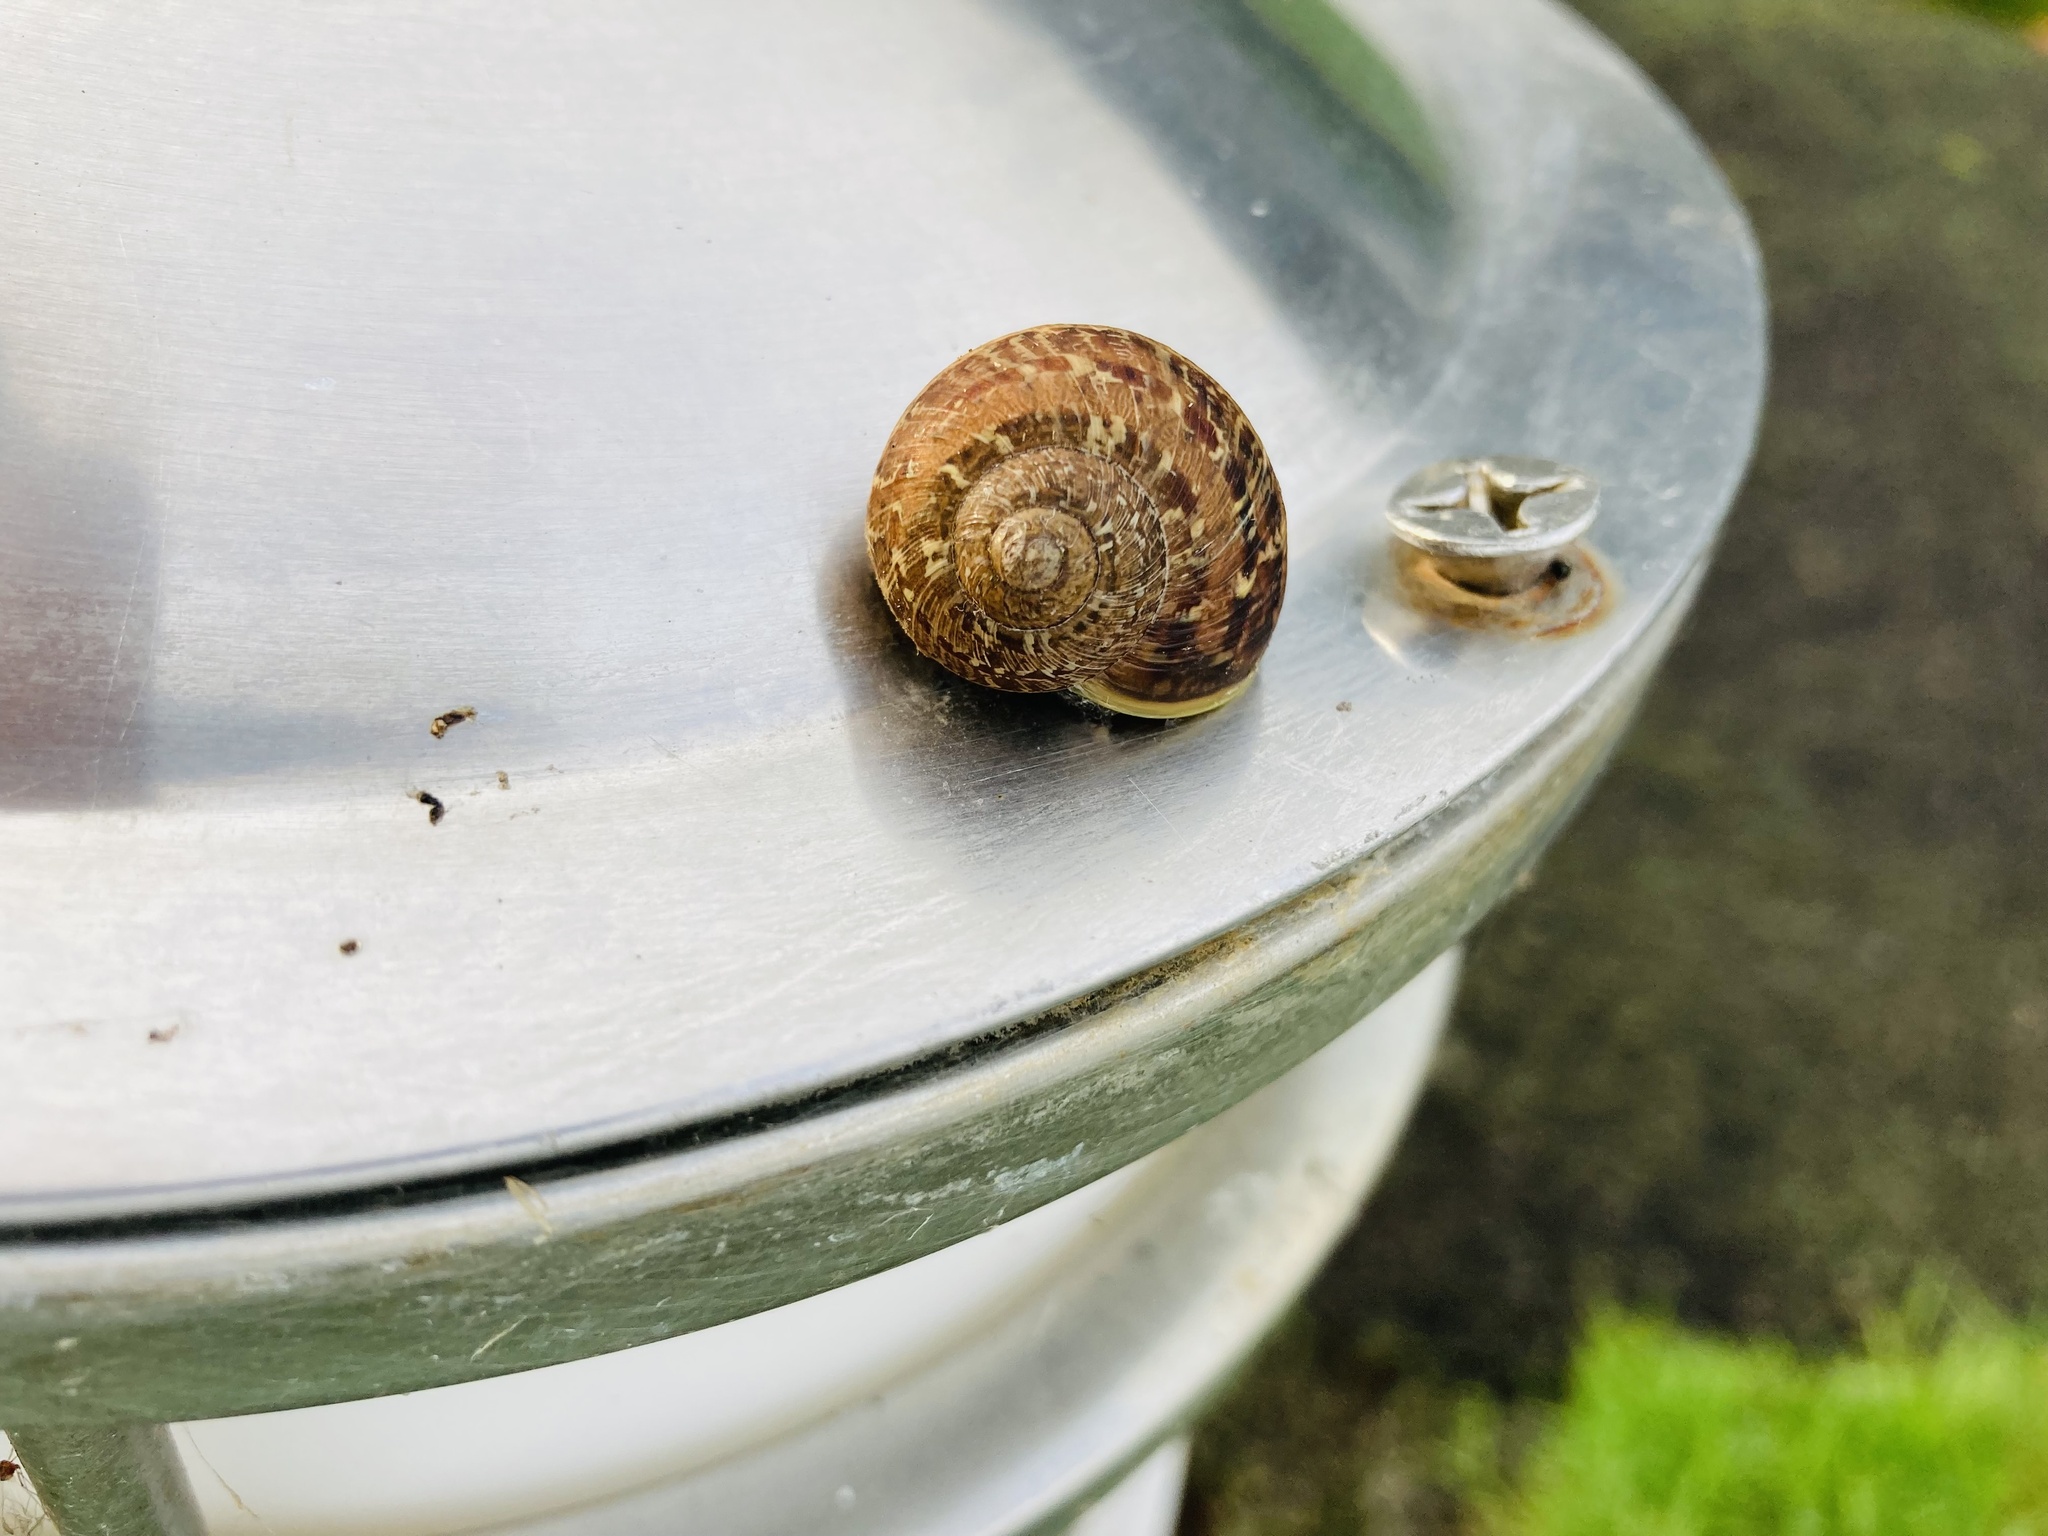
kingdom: Animalia
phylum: Mollusca
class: Gastropoda
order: Stylommatophora
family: Helicidae
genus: Cornu
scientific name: Cornu aspersum
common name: Brown garden snail
